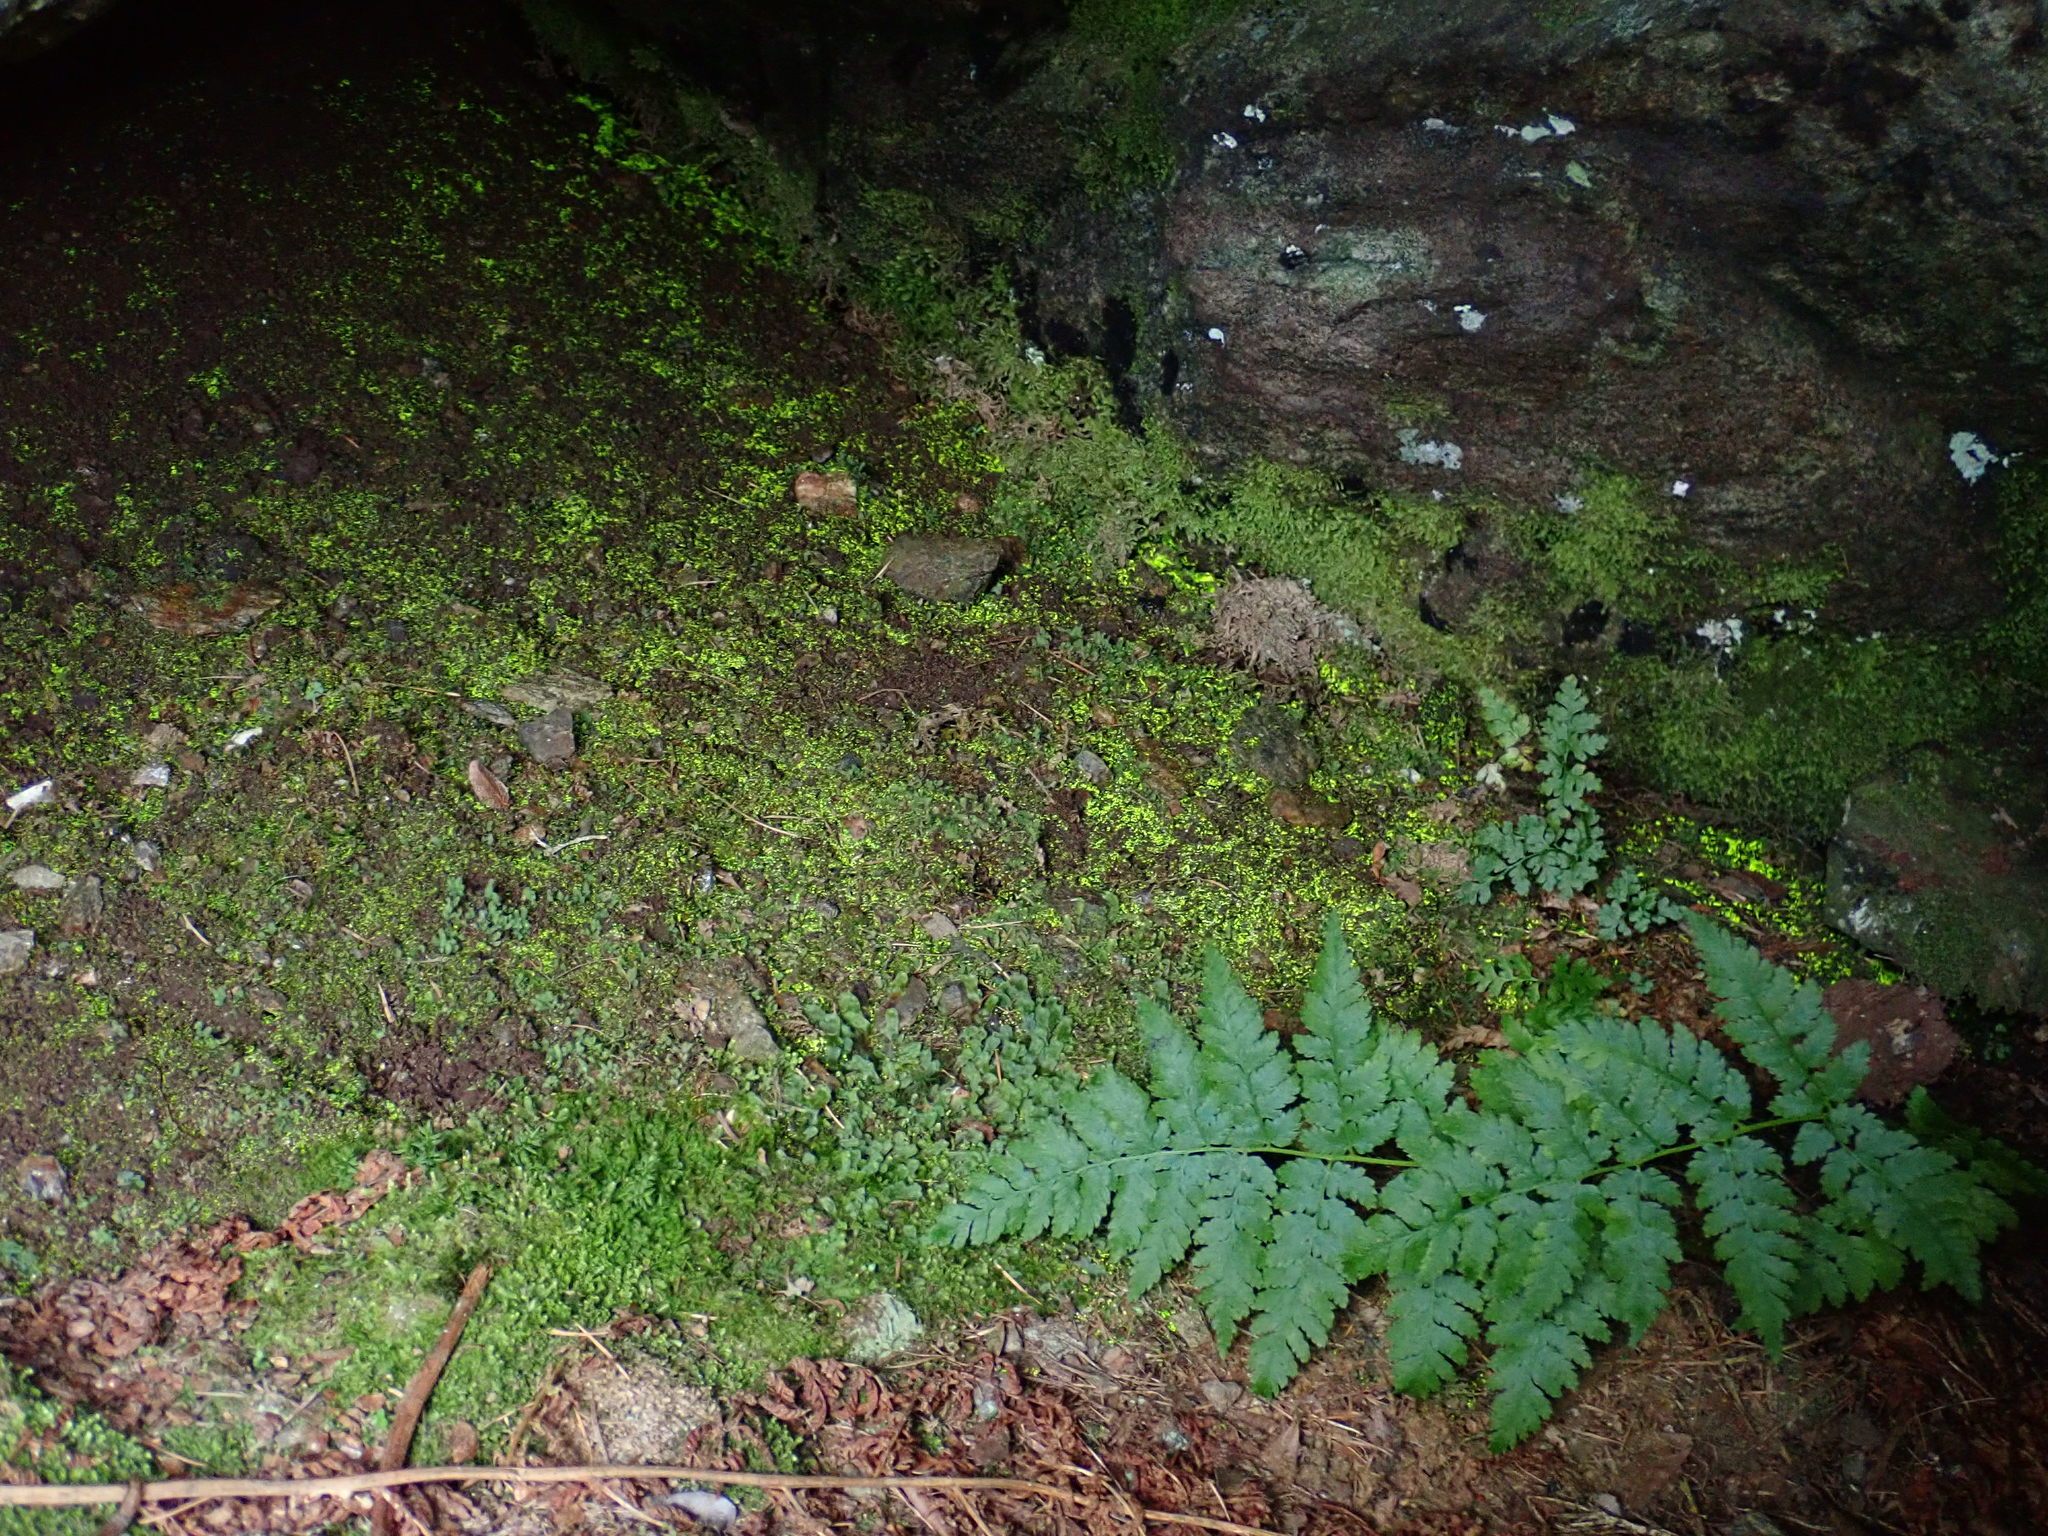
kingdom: Plantae
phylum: Bryophyta
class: Bryopsida
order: Dicranales
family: Schistostegaceae
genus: Schistostega
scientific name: Schistostega pennata
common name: Luminous moss
